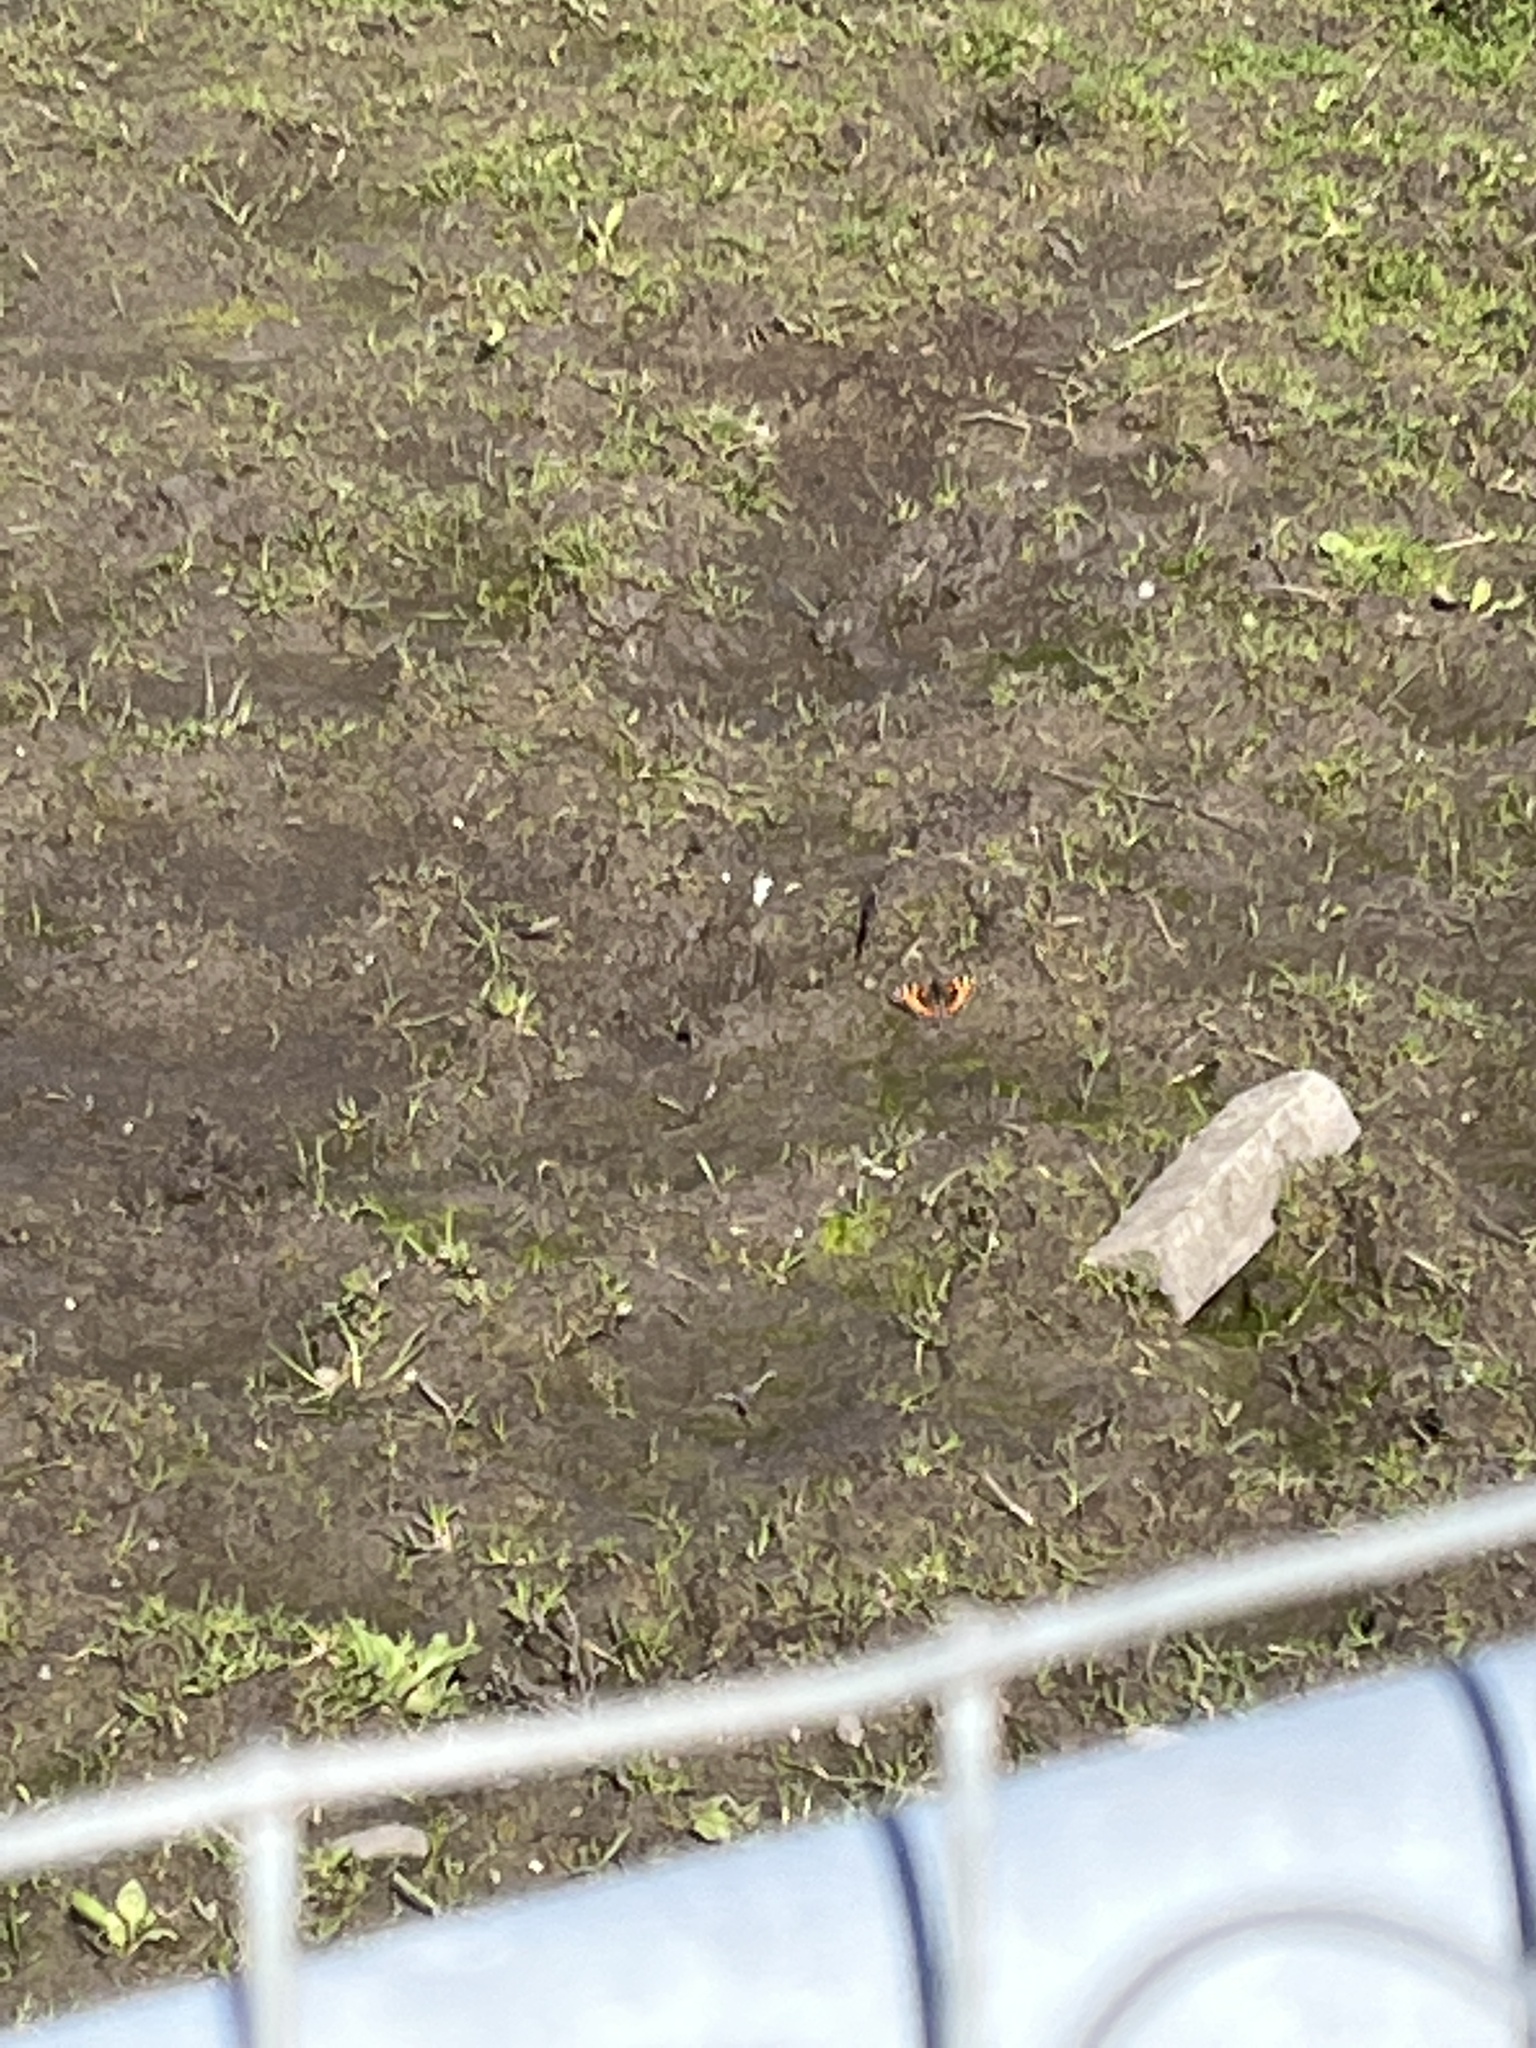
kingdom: Animalia
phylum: Arthropoda
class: Insecta
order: Lepidoptera
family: Nymphalidae
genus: Aglais
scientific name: Aglais urticae
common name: Small tortoiseshell
